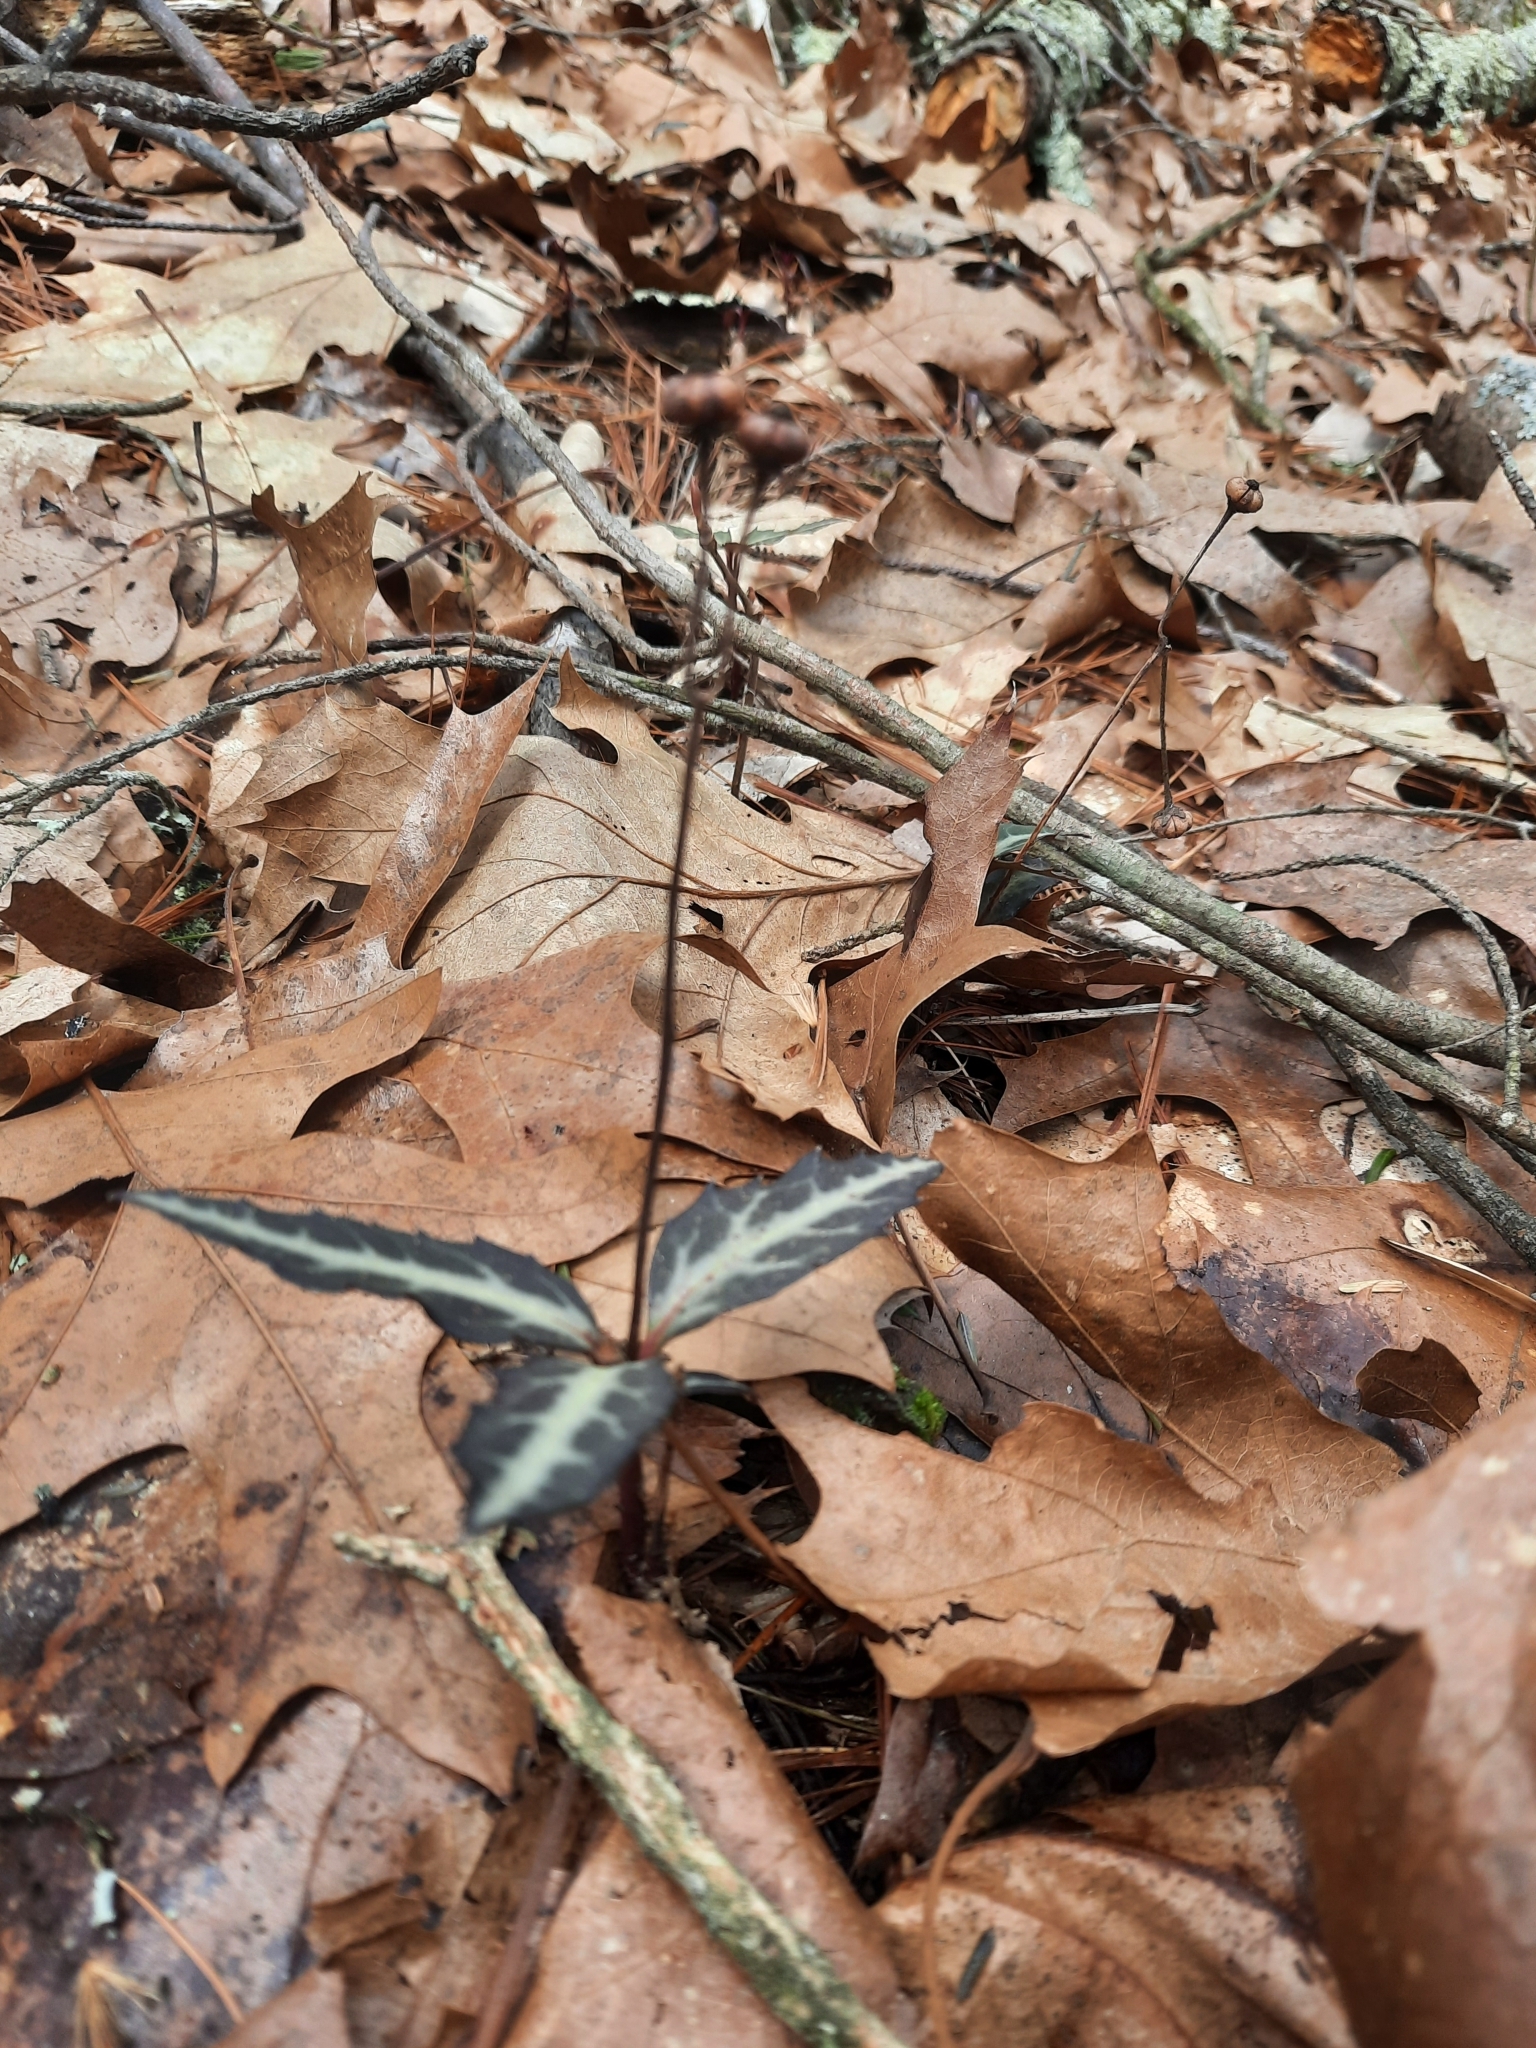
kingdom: Plantae
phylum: Tracheophyta
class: Magnoliopsida
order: Ericales
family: Ericaceae
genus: Chimaphila
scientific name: Chimaphila maculata
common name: Spotted pipsissewa
